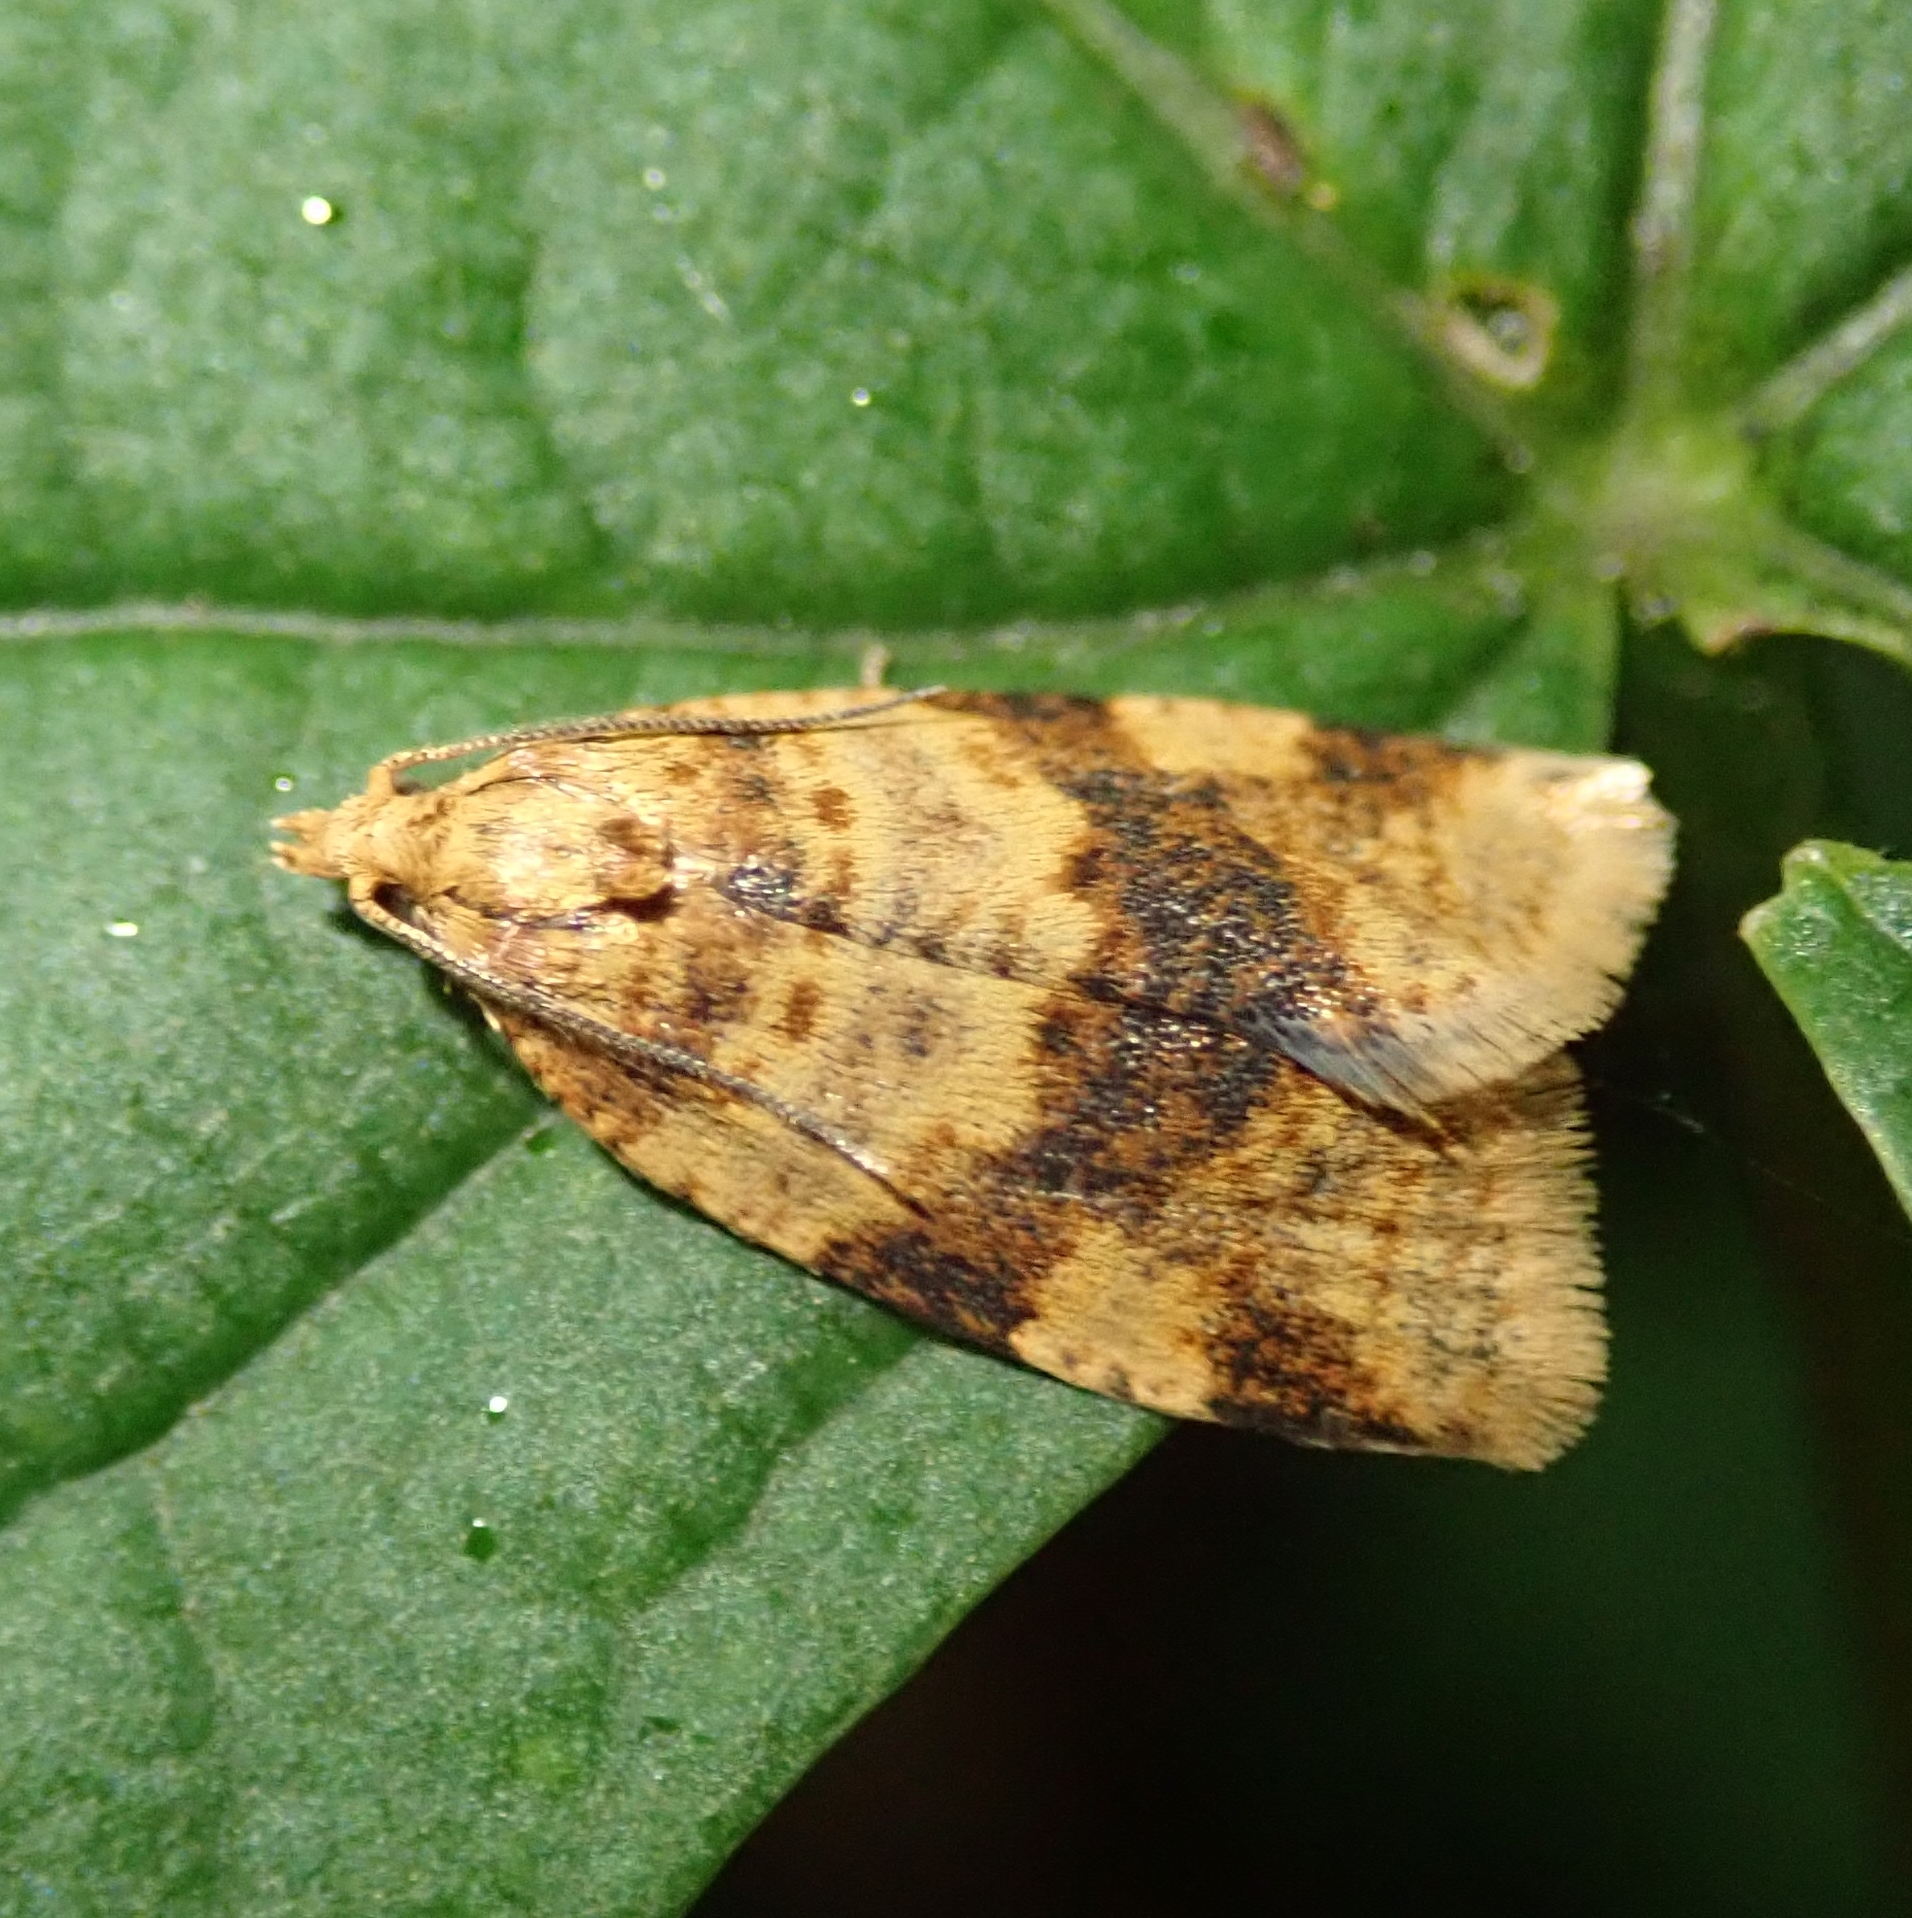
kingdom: Animalia
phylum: Arthropoda
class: Insecta
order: Lepidoptera
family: Tortricidae
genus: Epagoge
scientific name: Epagoge grotiana
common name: Brown-barred twist
